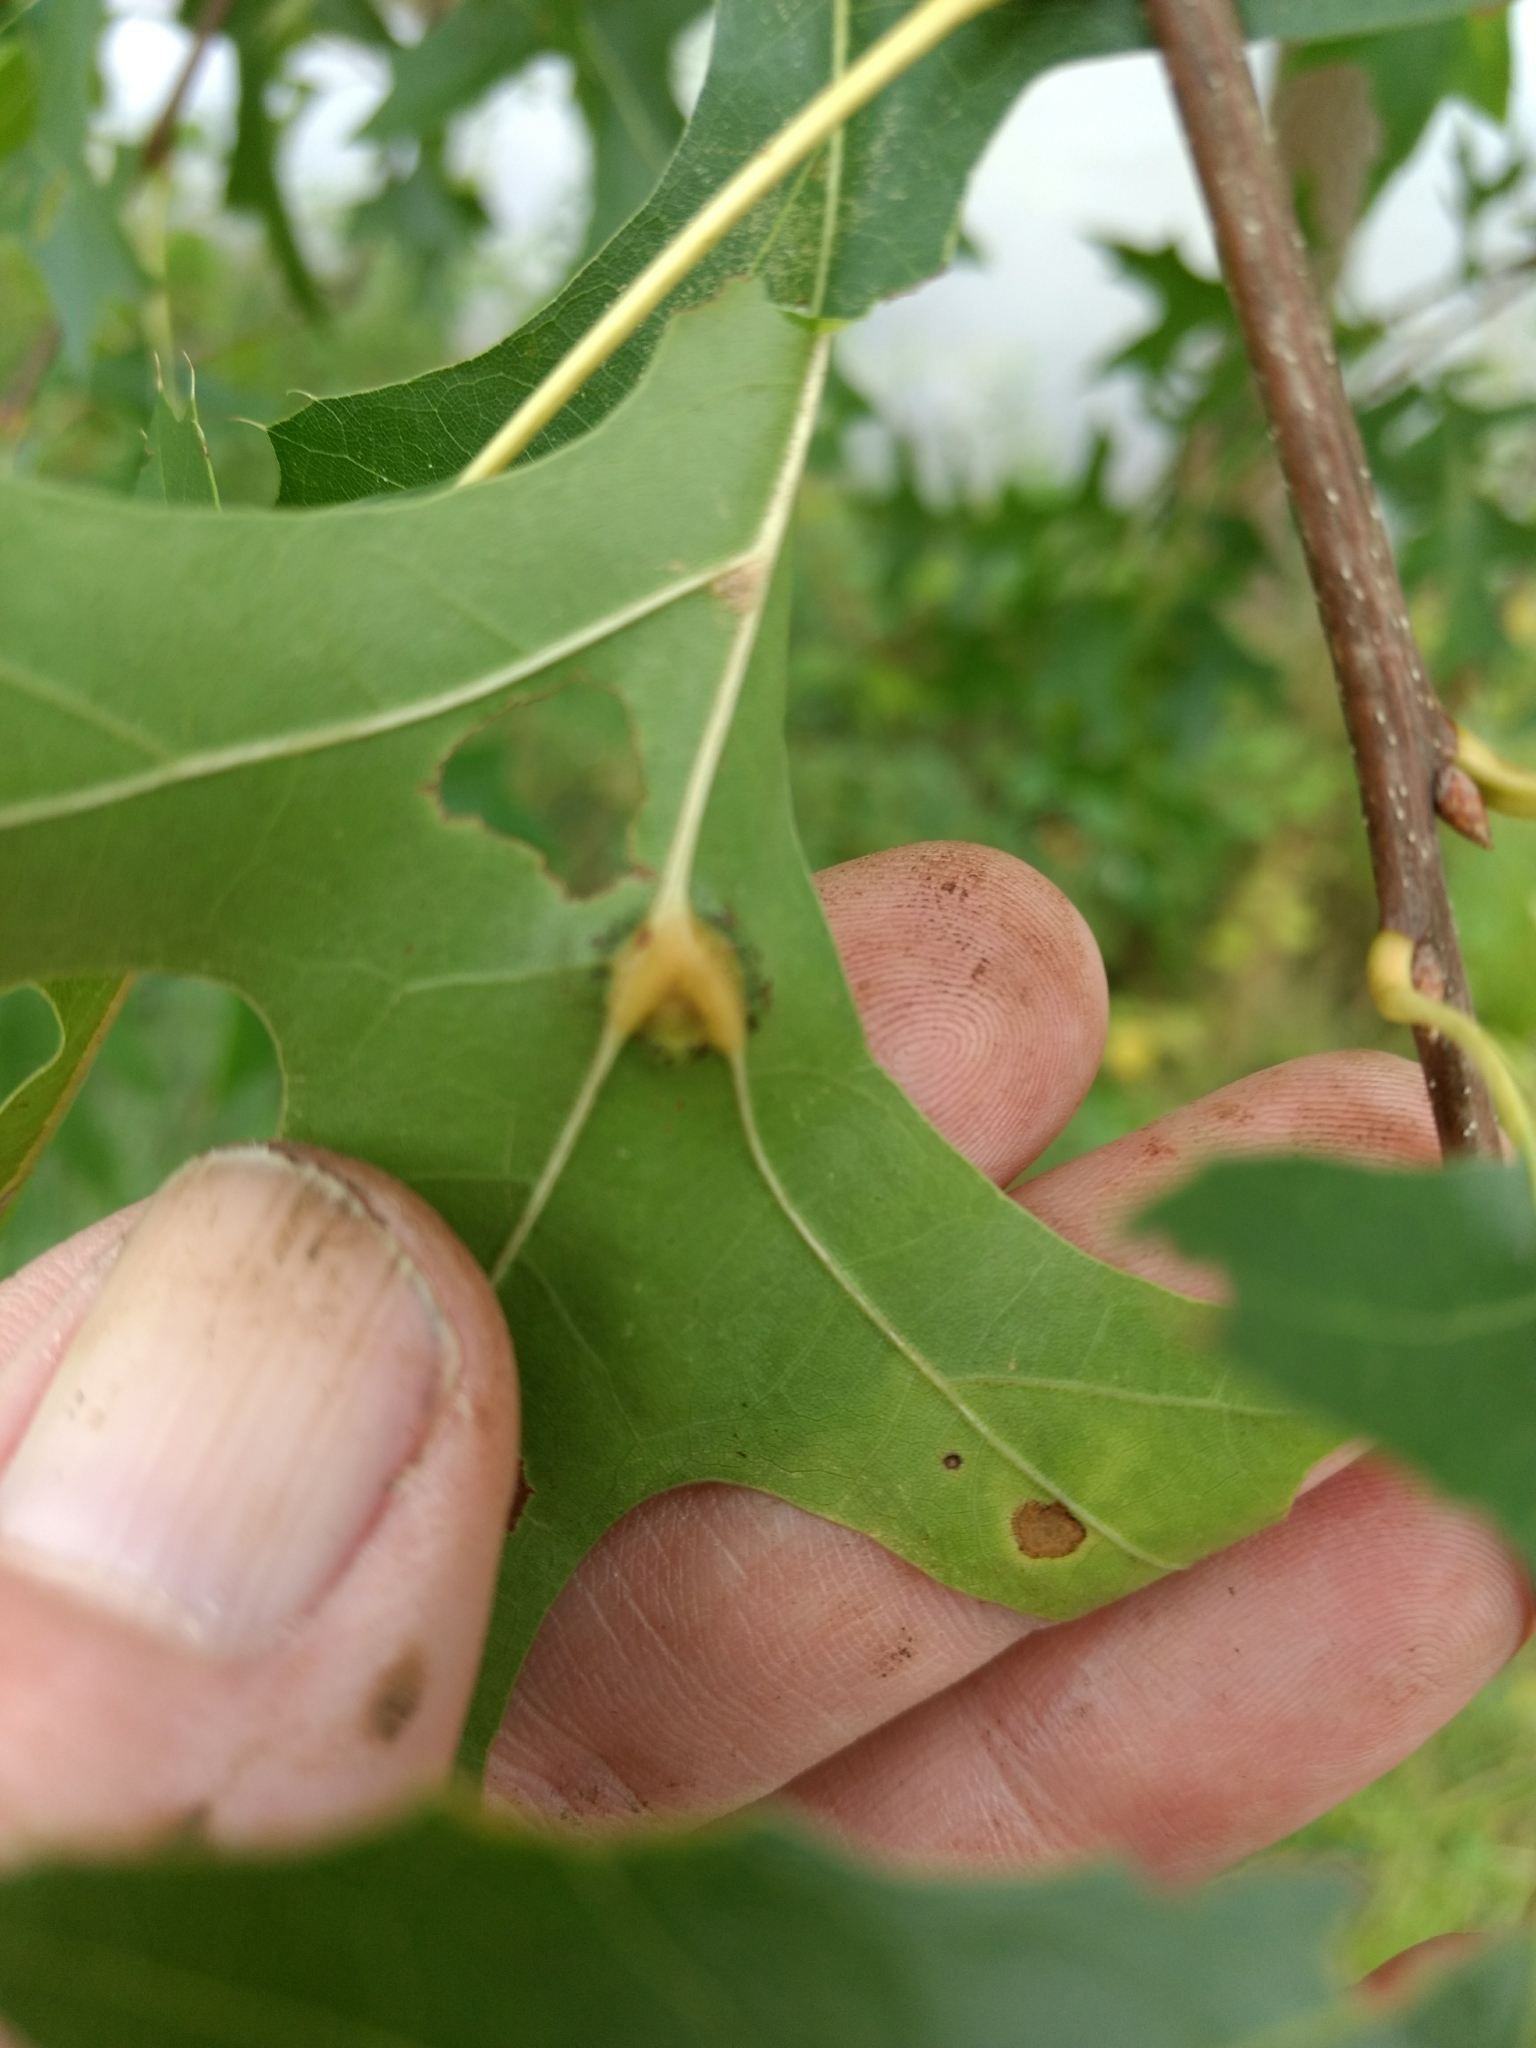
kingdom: Animalia
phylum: Arthropoda
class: Insecta
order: Diptera
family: Cecidomyiidae
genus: Polystepha
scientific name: Polystepha pilulae
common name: Oak leaf gall midge
